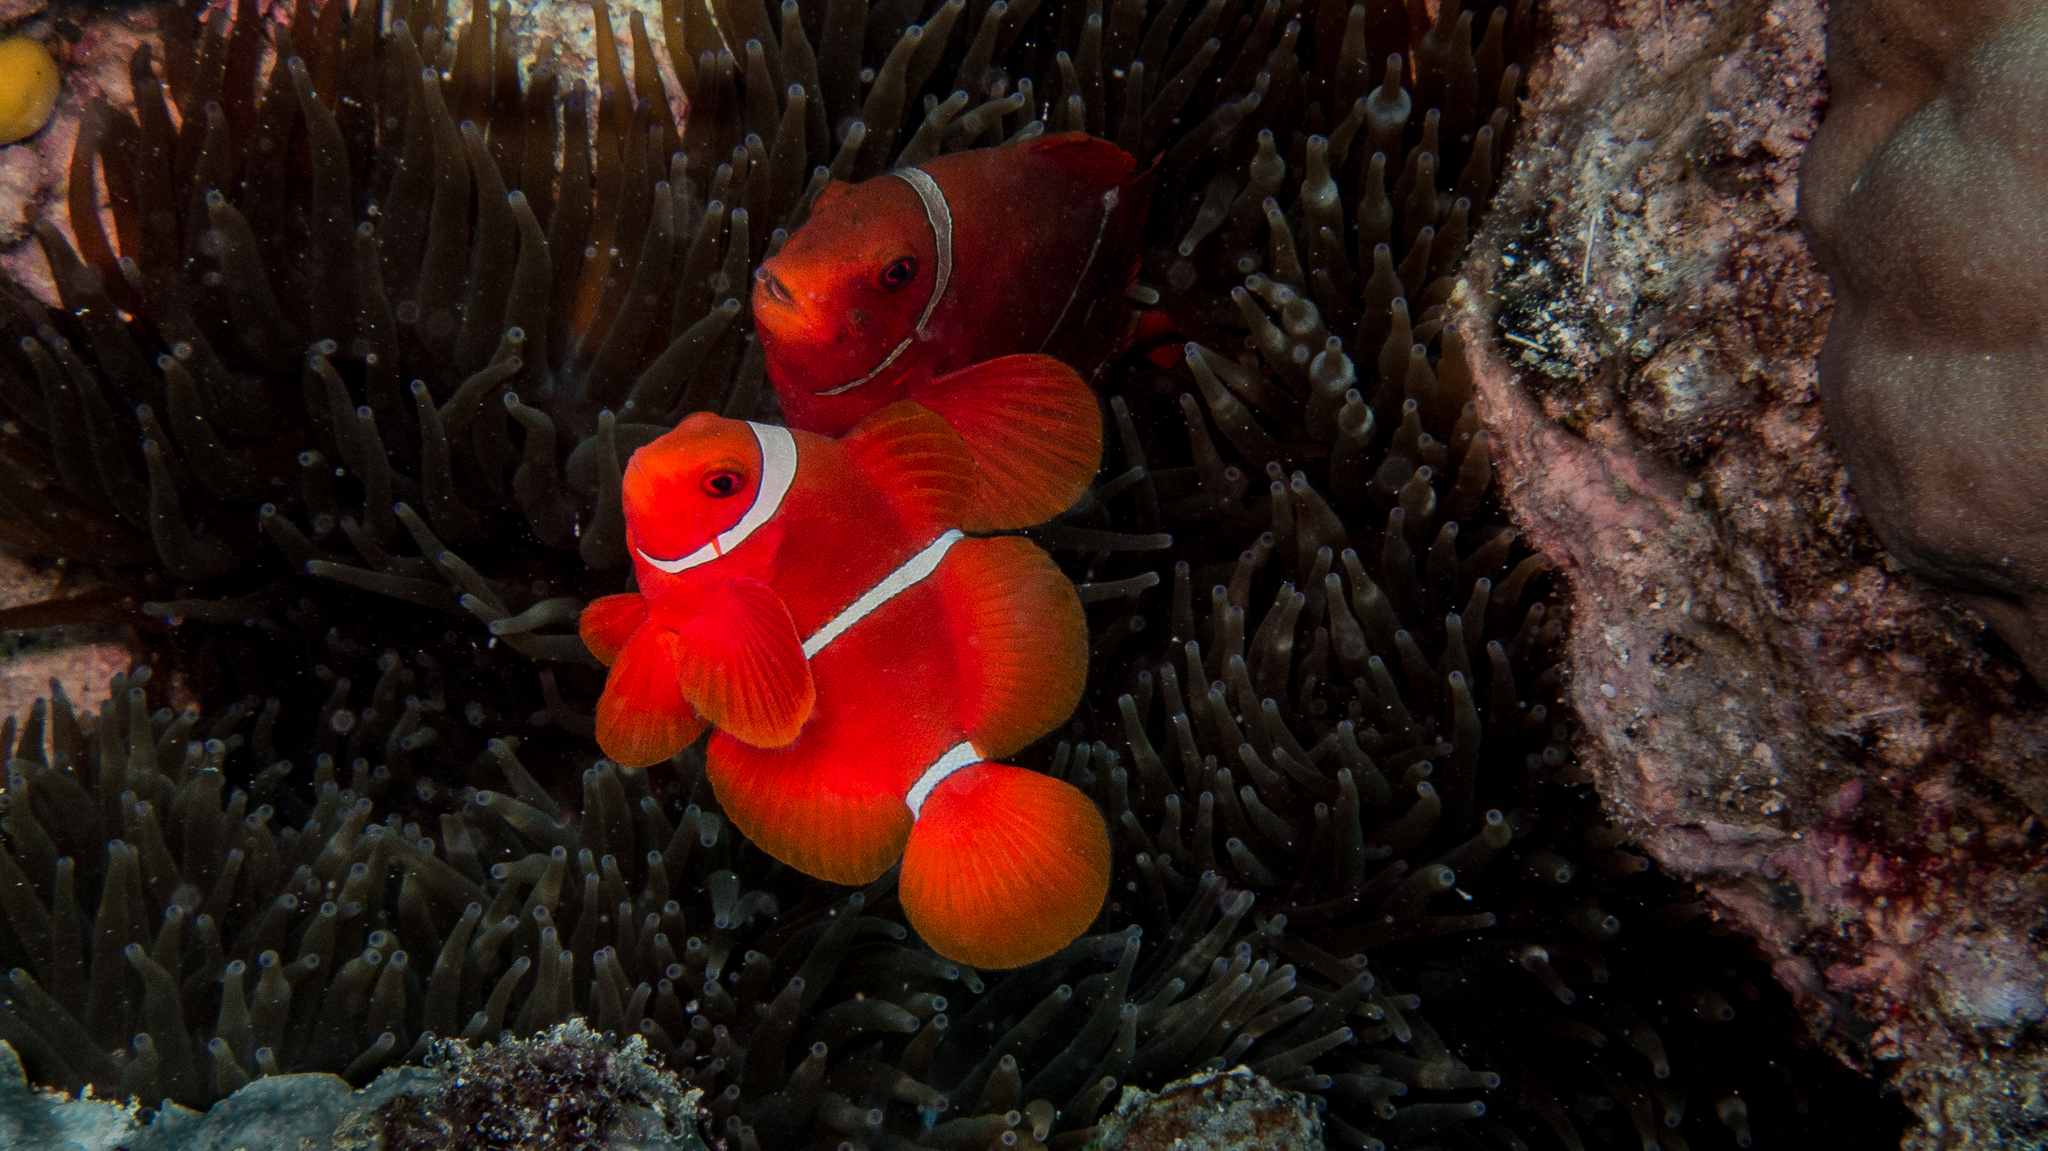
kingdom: Animalia
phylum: Chordata
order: Perciformes
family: Pomacentridae
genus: Premnas
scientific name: Premnas biaculeatus
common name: Spinecheek anemonefish
